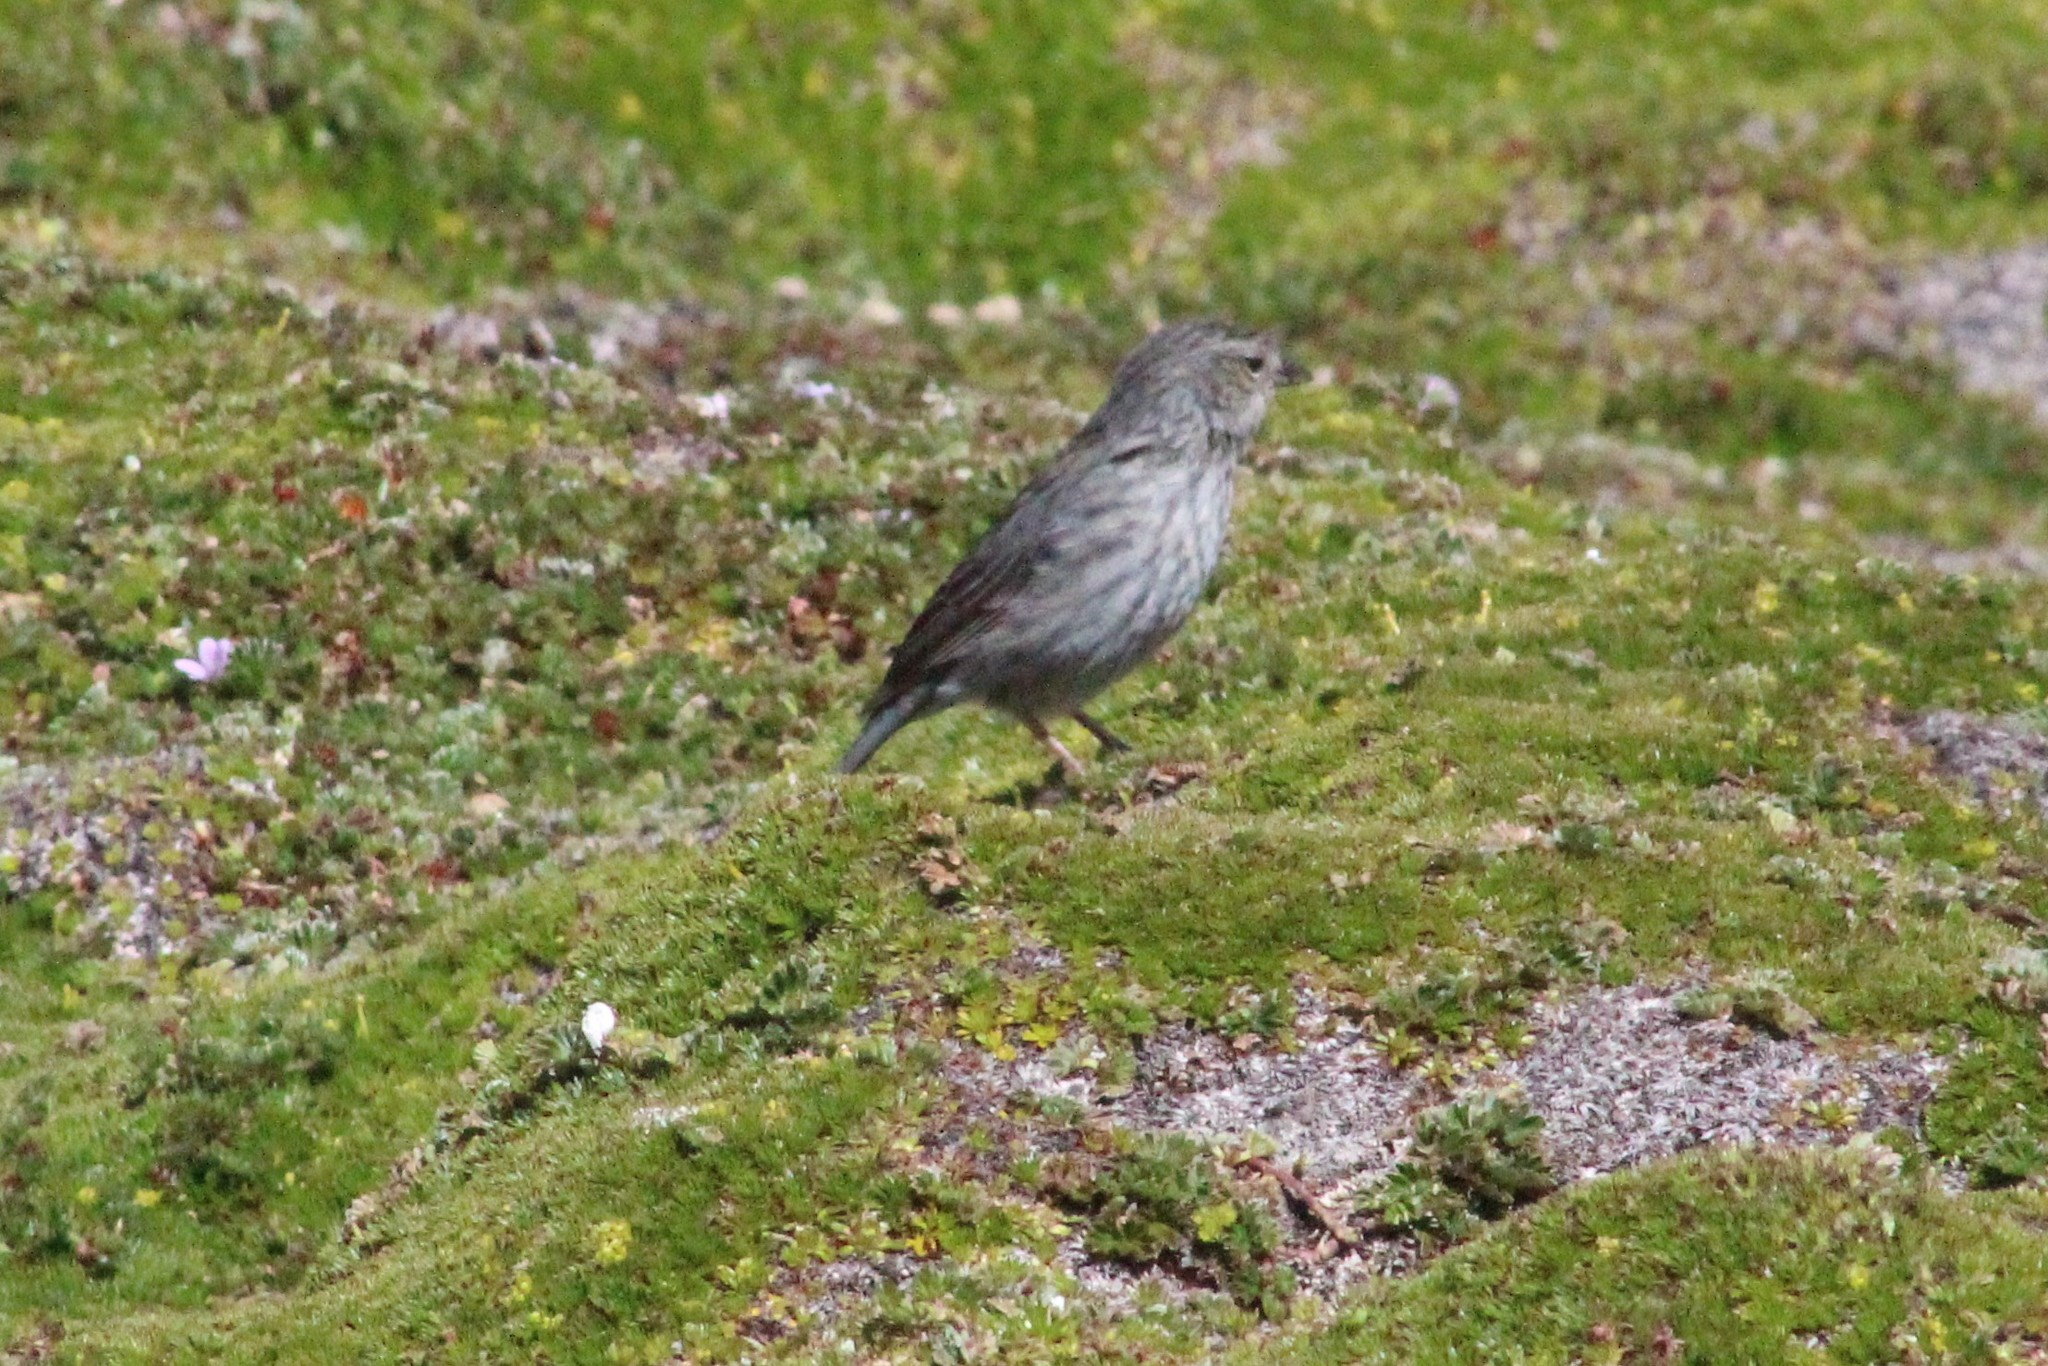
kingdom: Animalia
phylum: Chordata
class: Aves
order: Passeriformes
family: Thraupidae
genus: Geospizopsis
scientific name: Geospizopsis plebejus
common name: Ash-breasted sierra-finch
